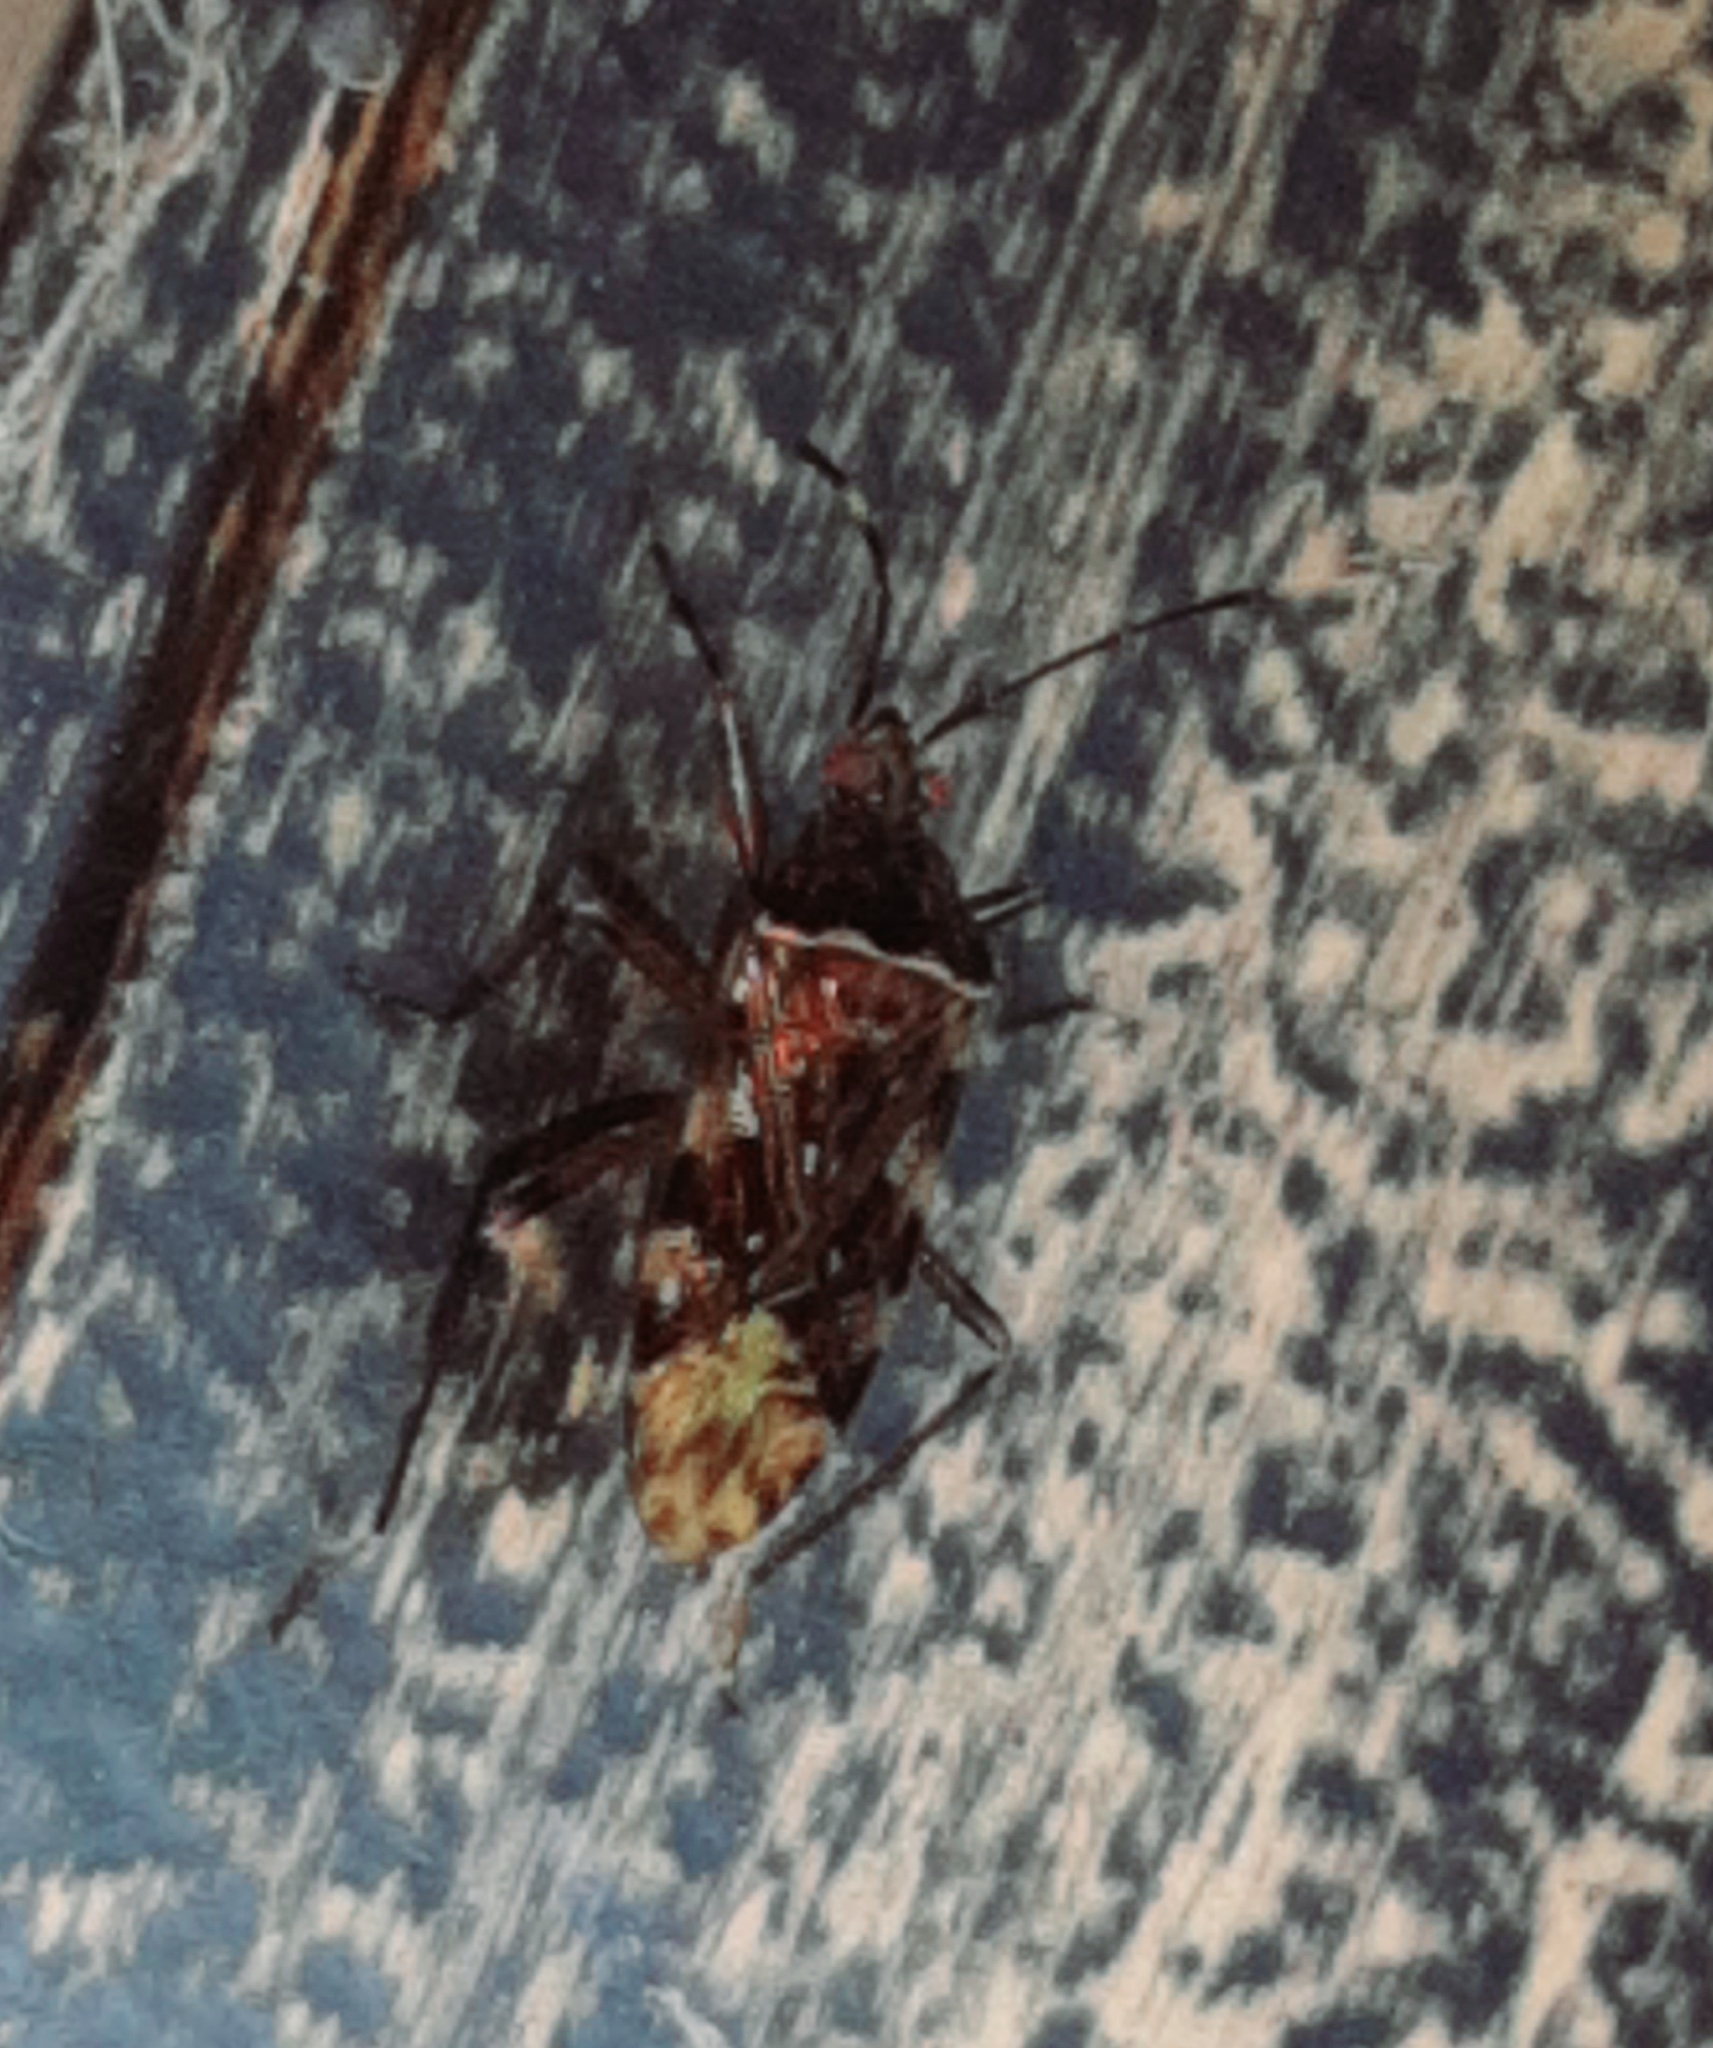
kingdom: Animalia
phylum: Arthropoda
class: Insecta
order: Hemiptera
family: Rhyparochromidae
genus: Balboa
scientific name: Balboa variabilis
